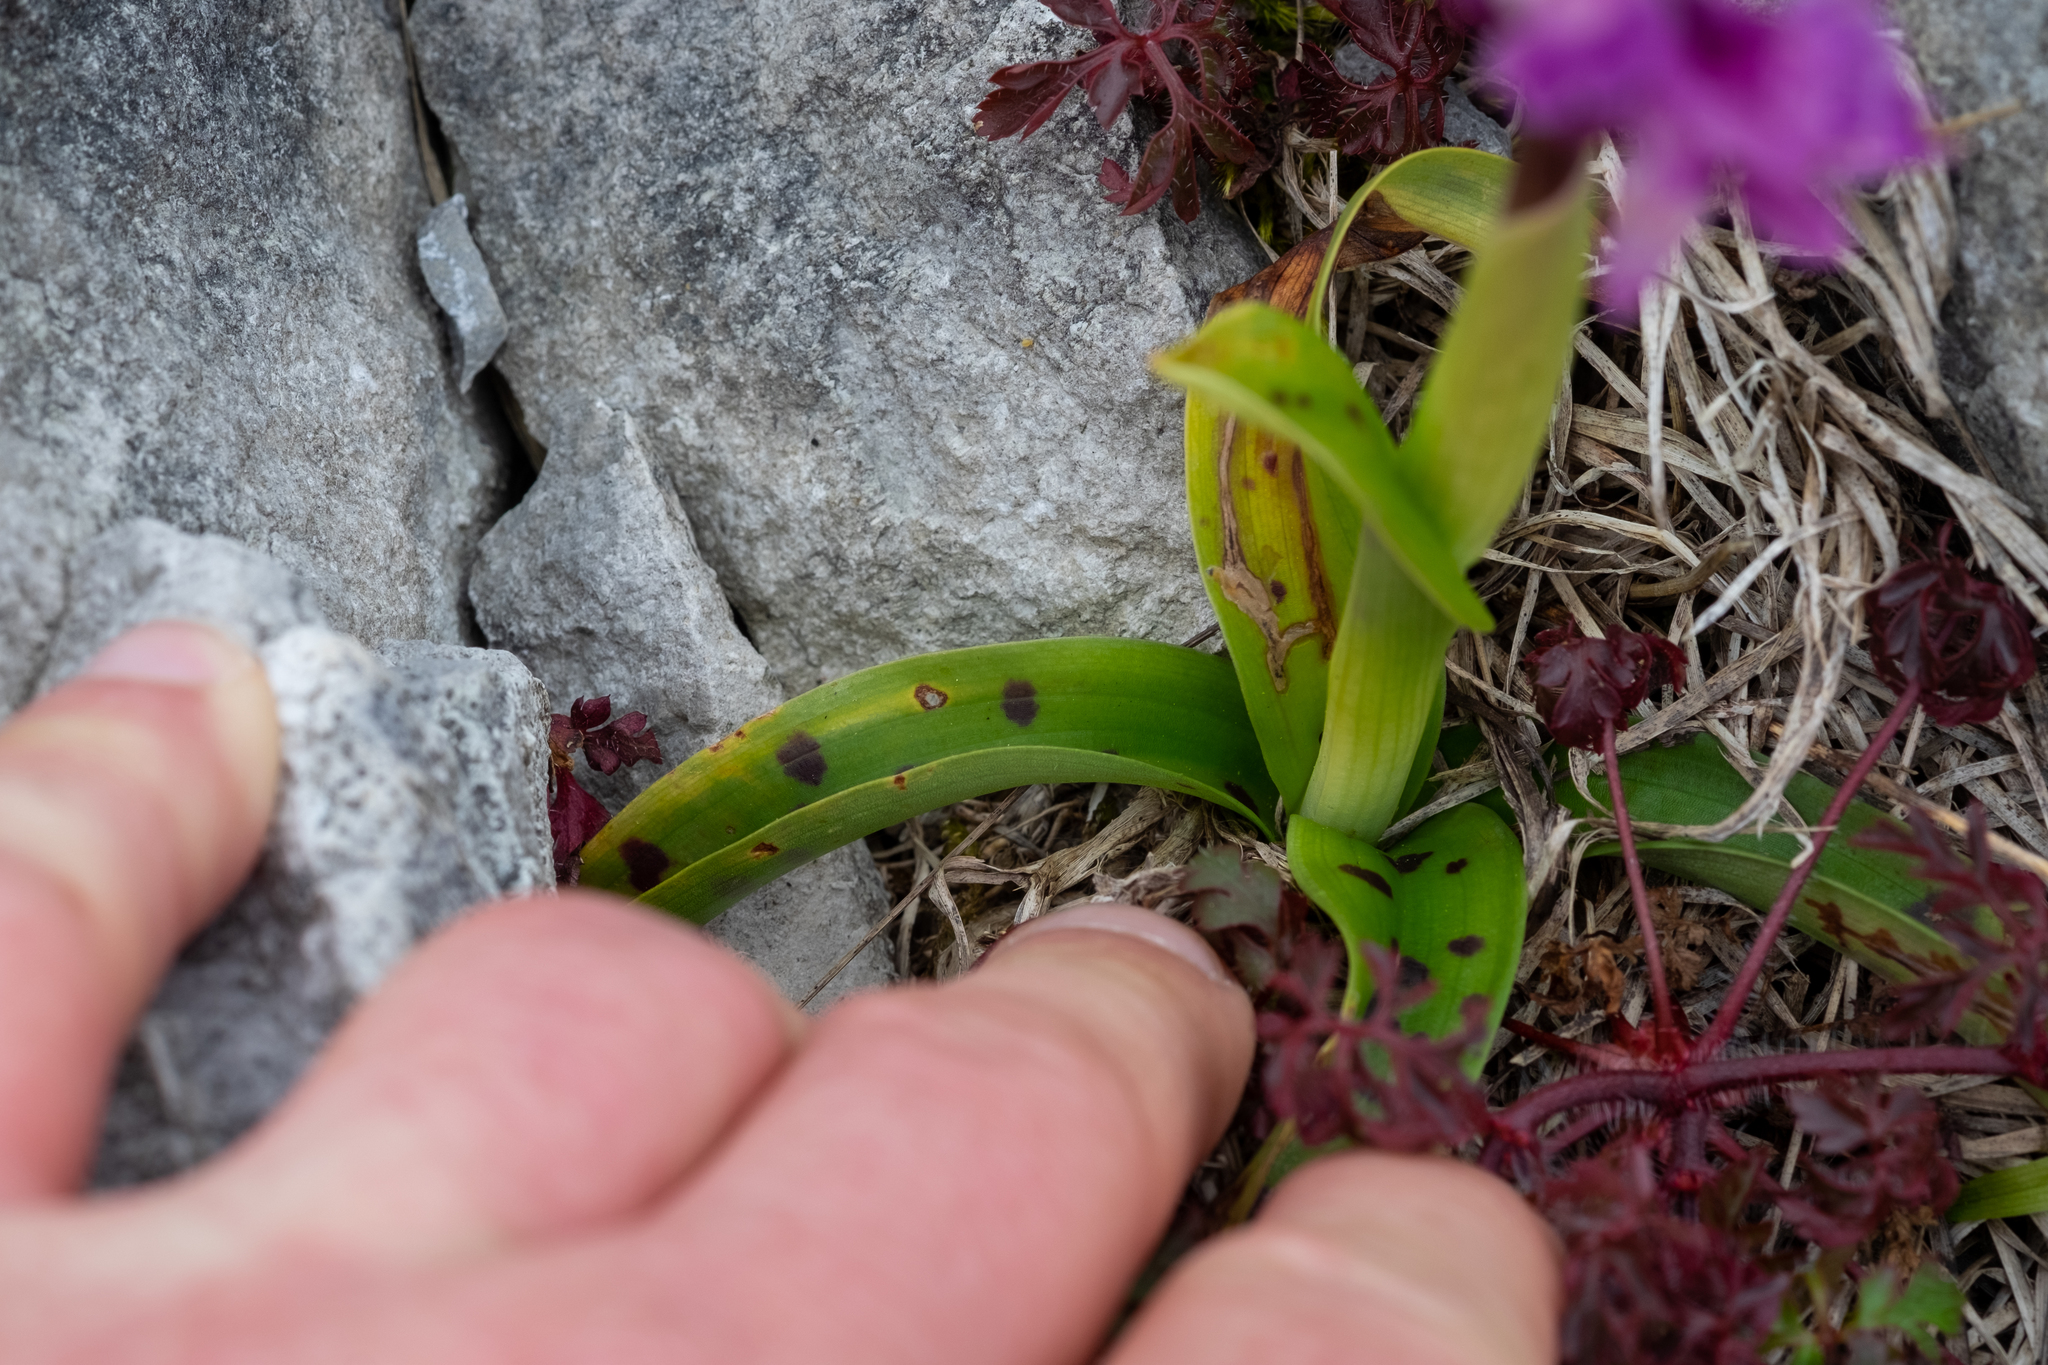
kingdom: Plantae
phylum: Tracheophyta
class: Liliopsida
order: Asparagales
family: Orchidaceae
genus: Orchis
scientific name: Orchis mascula
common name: Early-purple orchid
